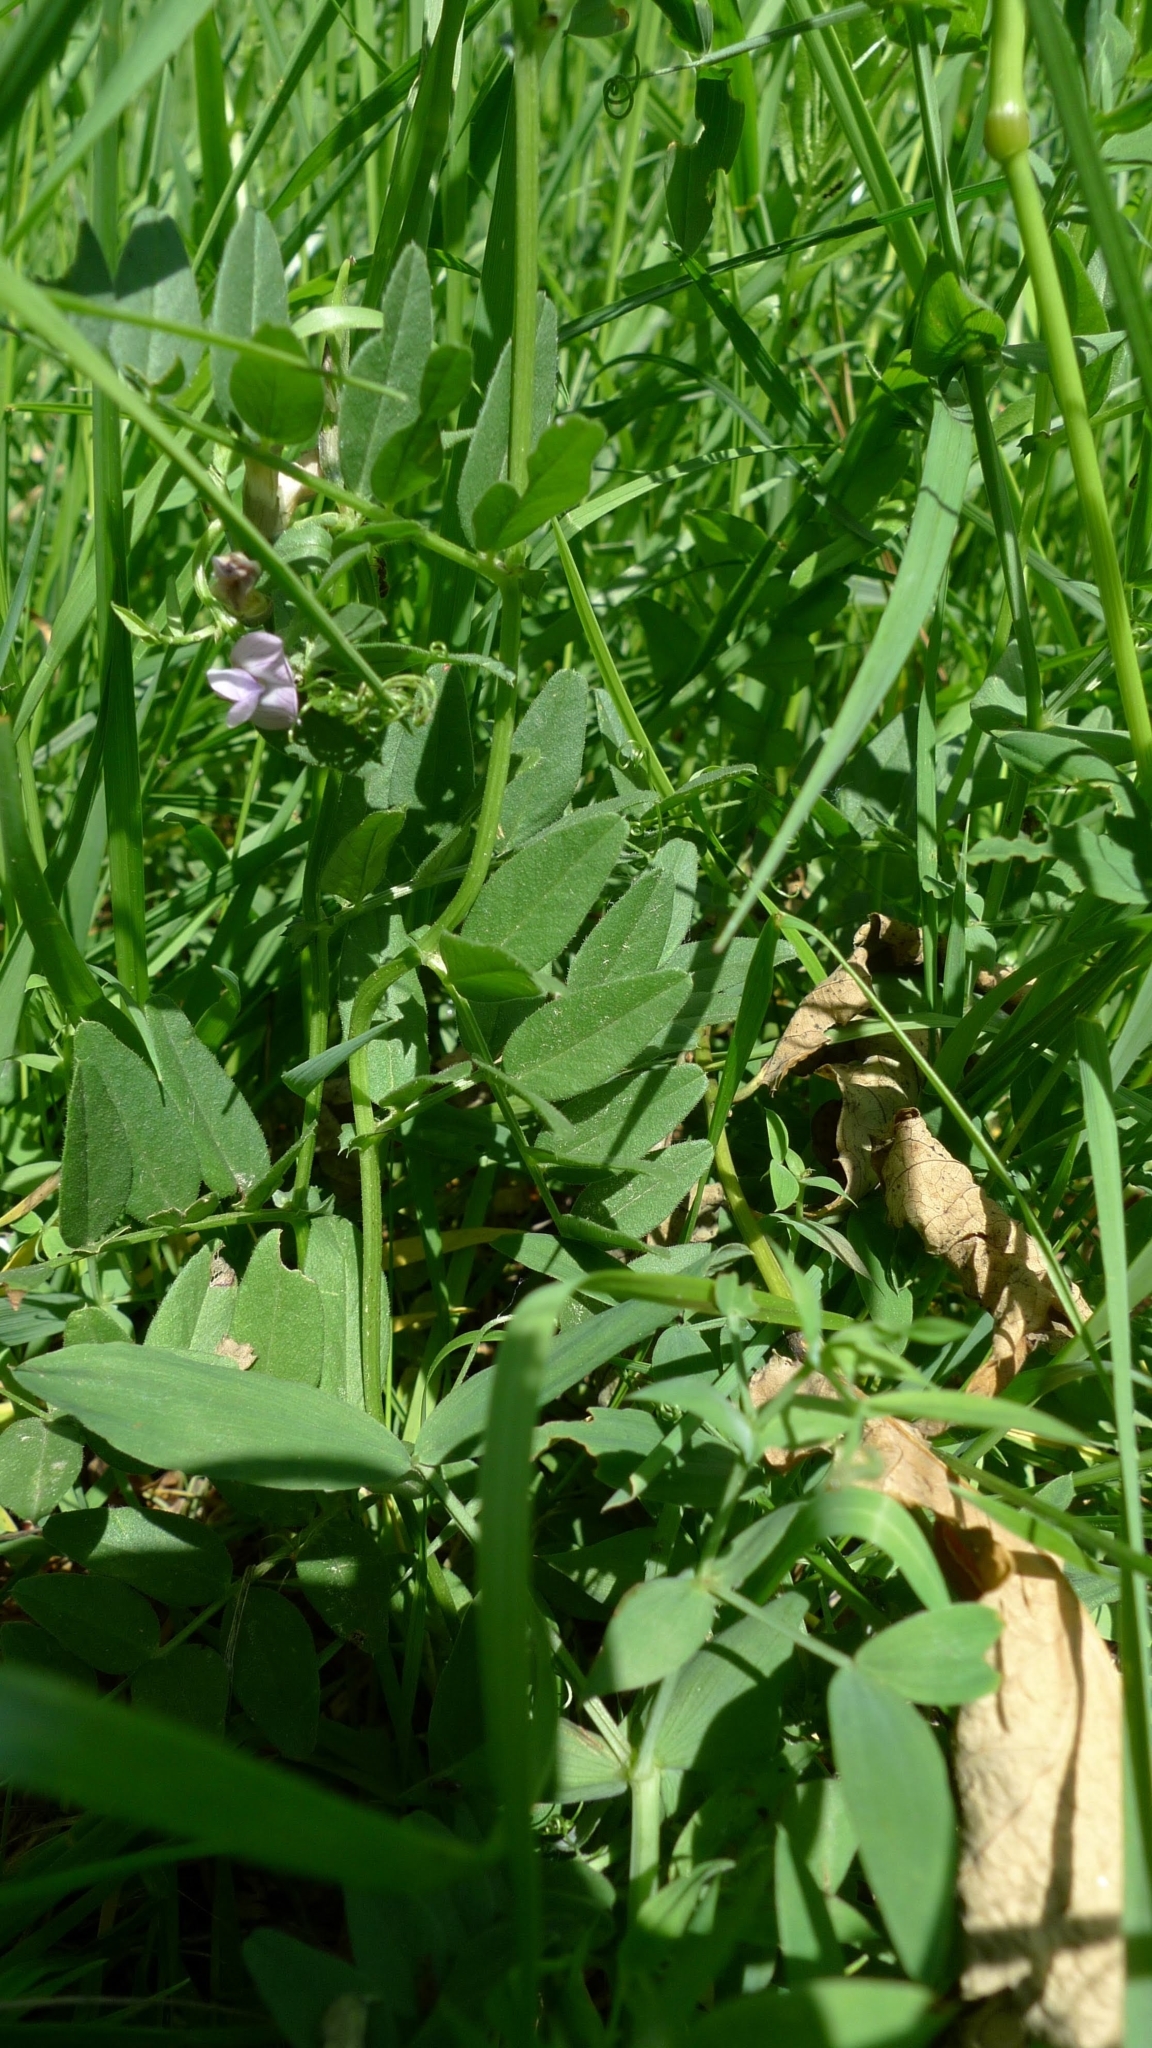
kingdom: Plantae
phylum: Tracheophyta
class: Magnoliopsida
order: Fabales
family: Fabaceae
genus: Vicia
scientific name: Vicia sepium
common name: Bush vetch
